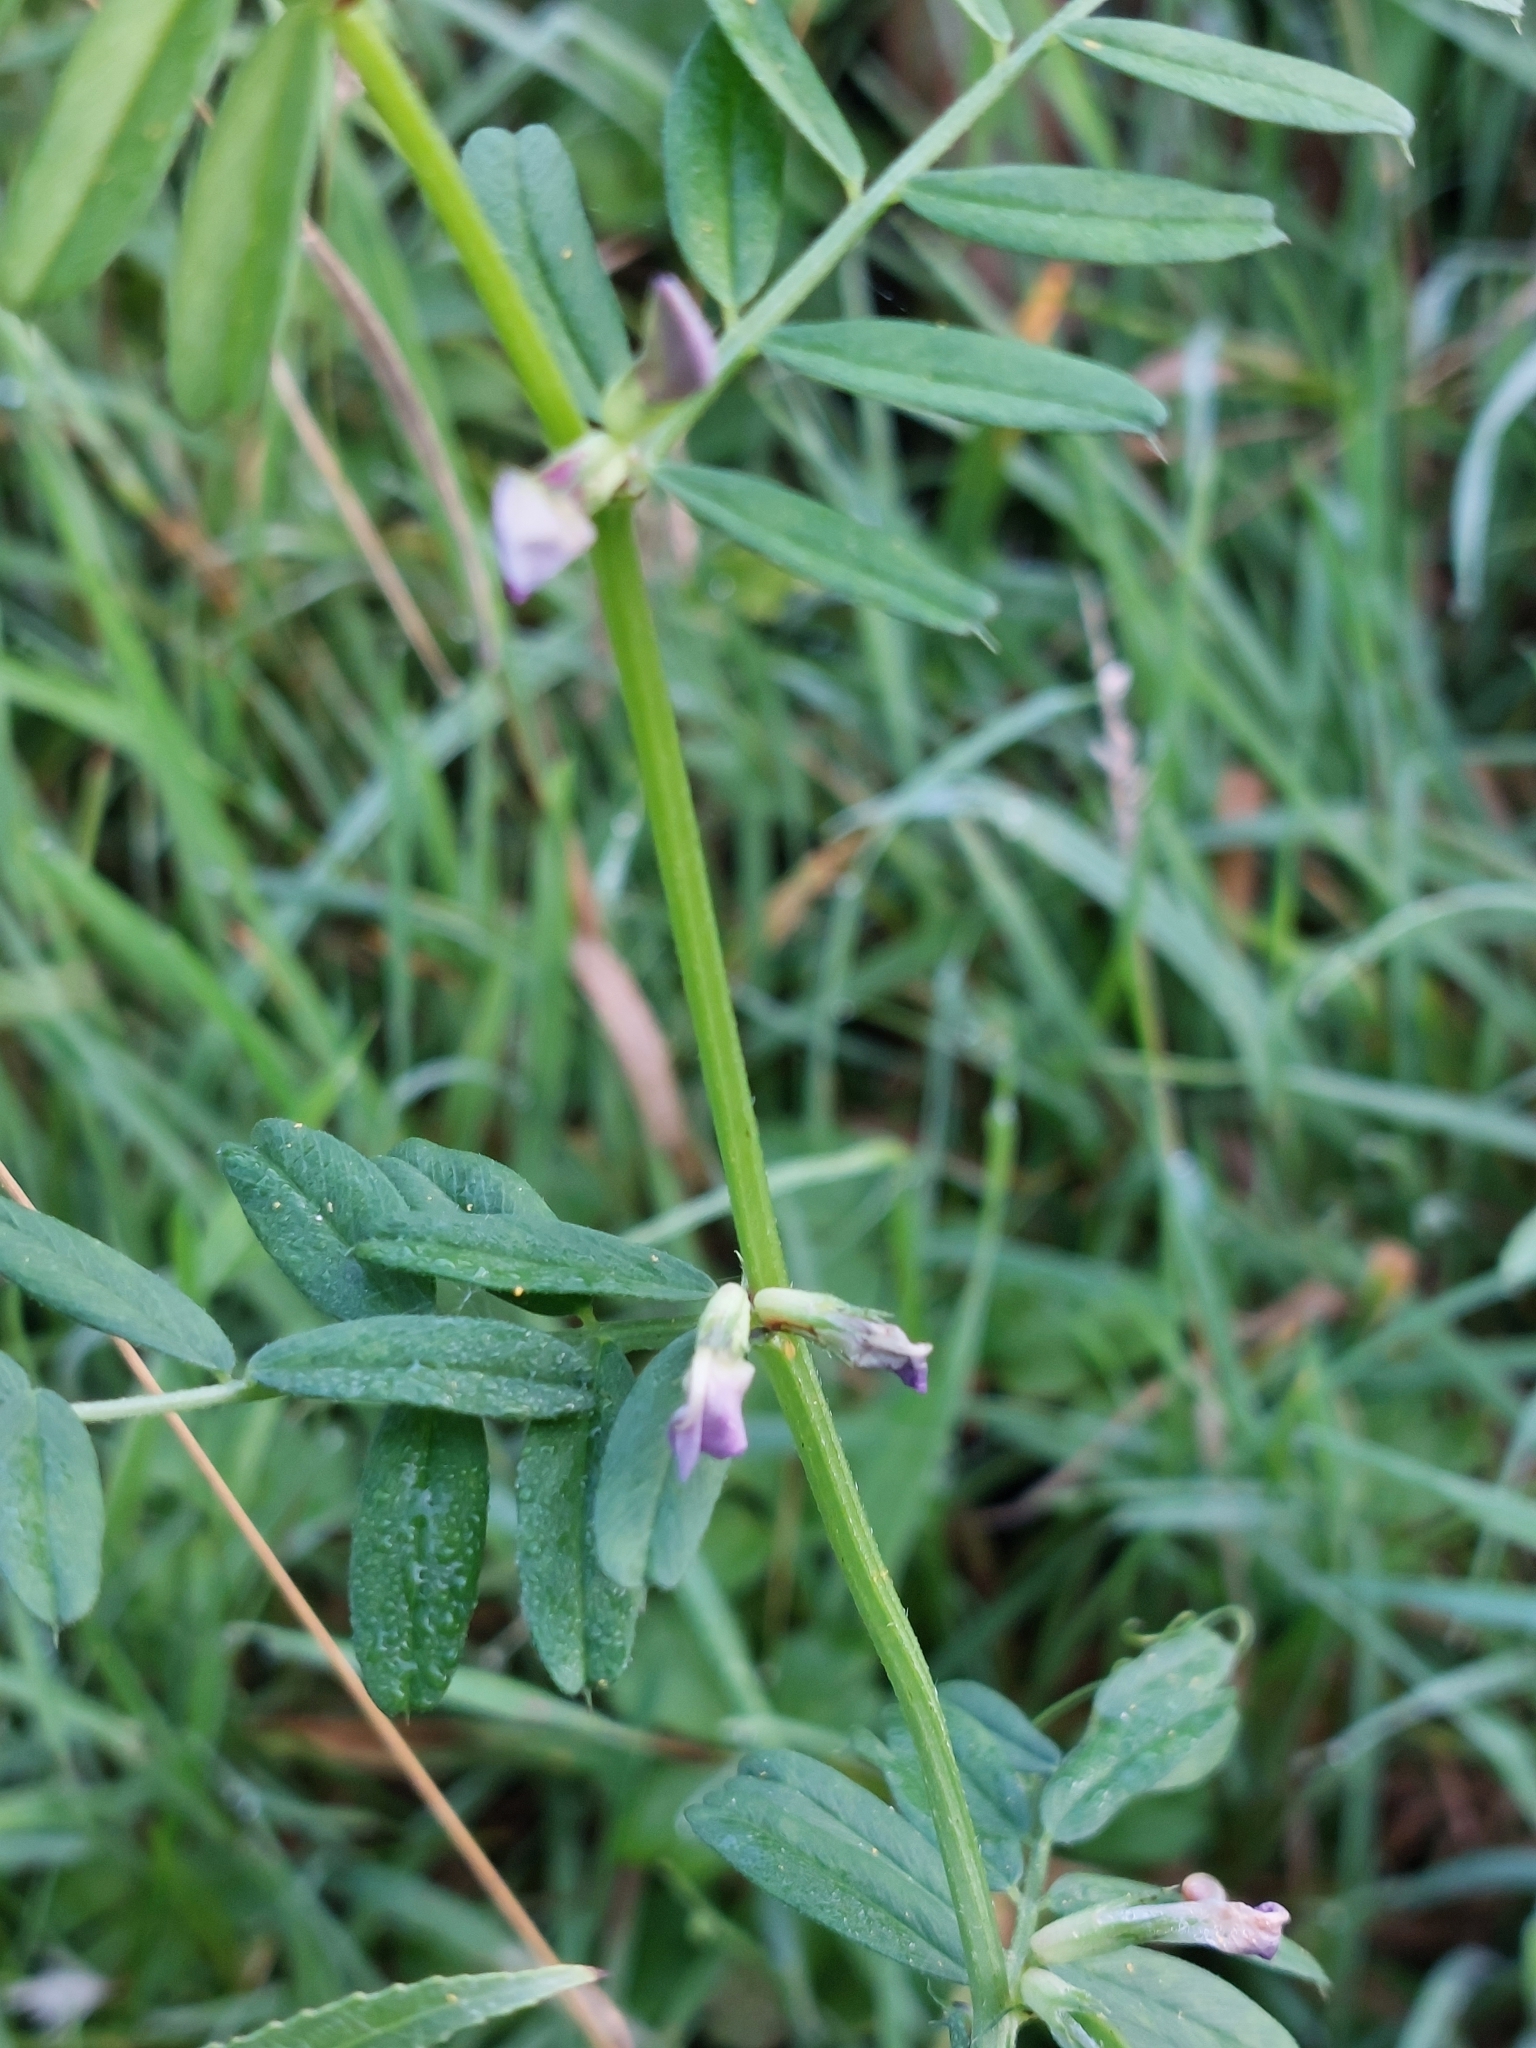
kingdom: Plantae
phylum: Tracheophyta
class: Magnoliopsida
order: Fabales
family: Fabaceae
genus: Vicia
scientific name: Vicia sativa
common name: Garden vetch
